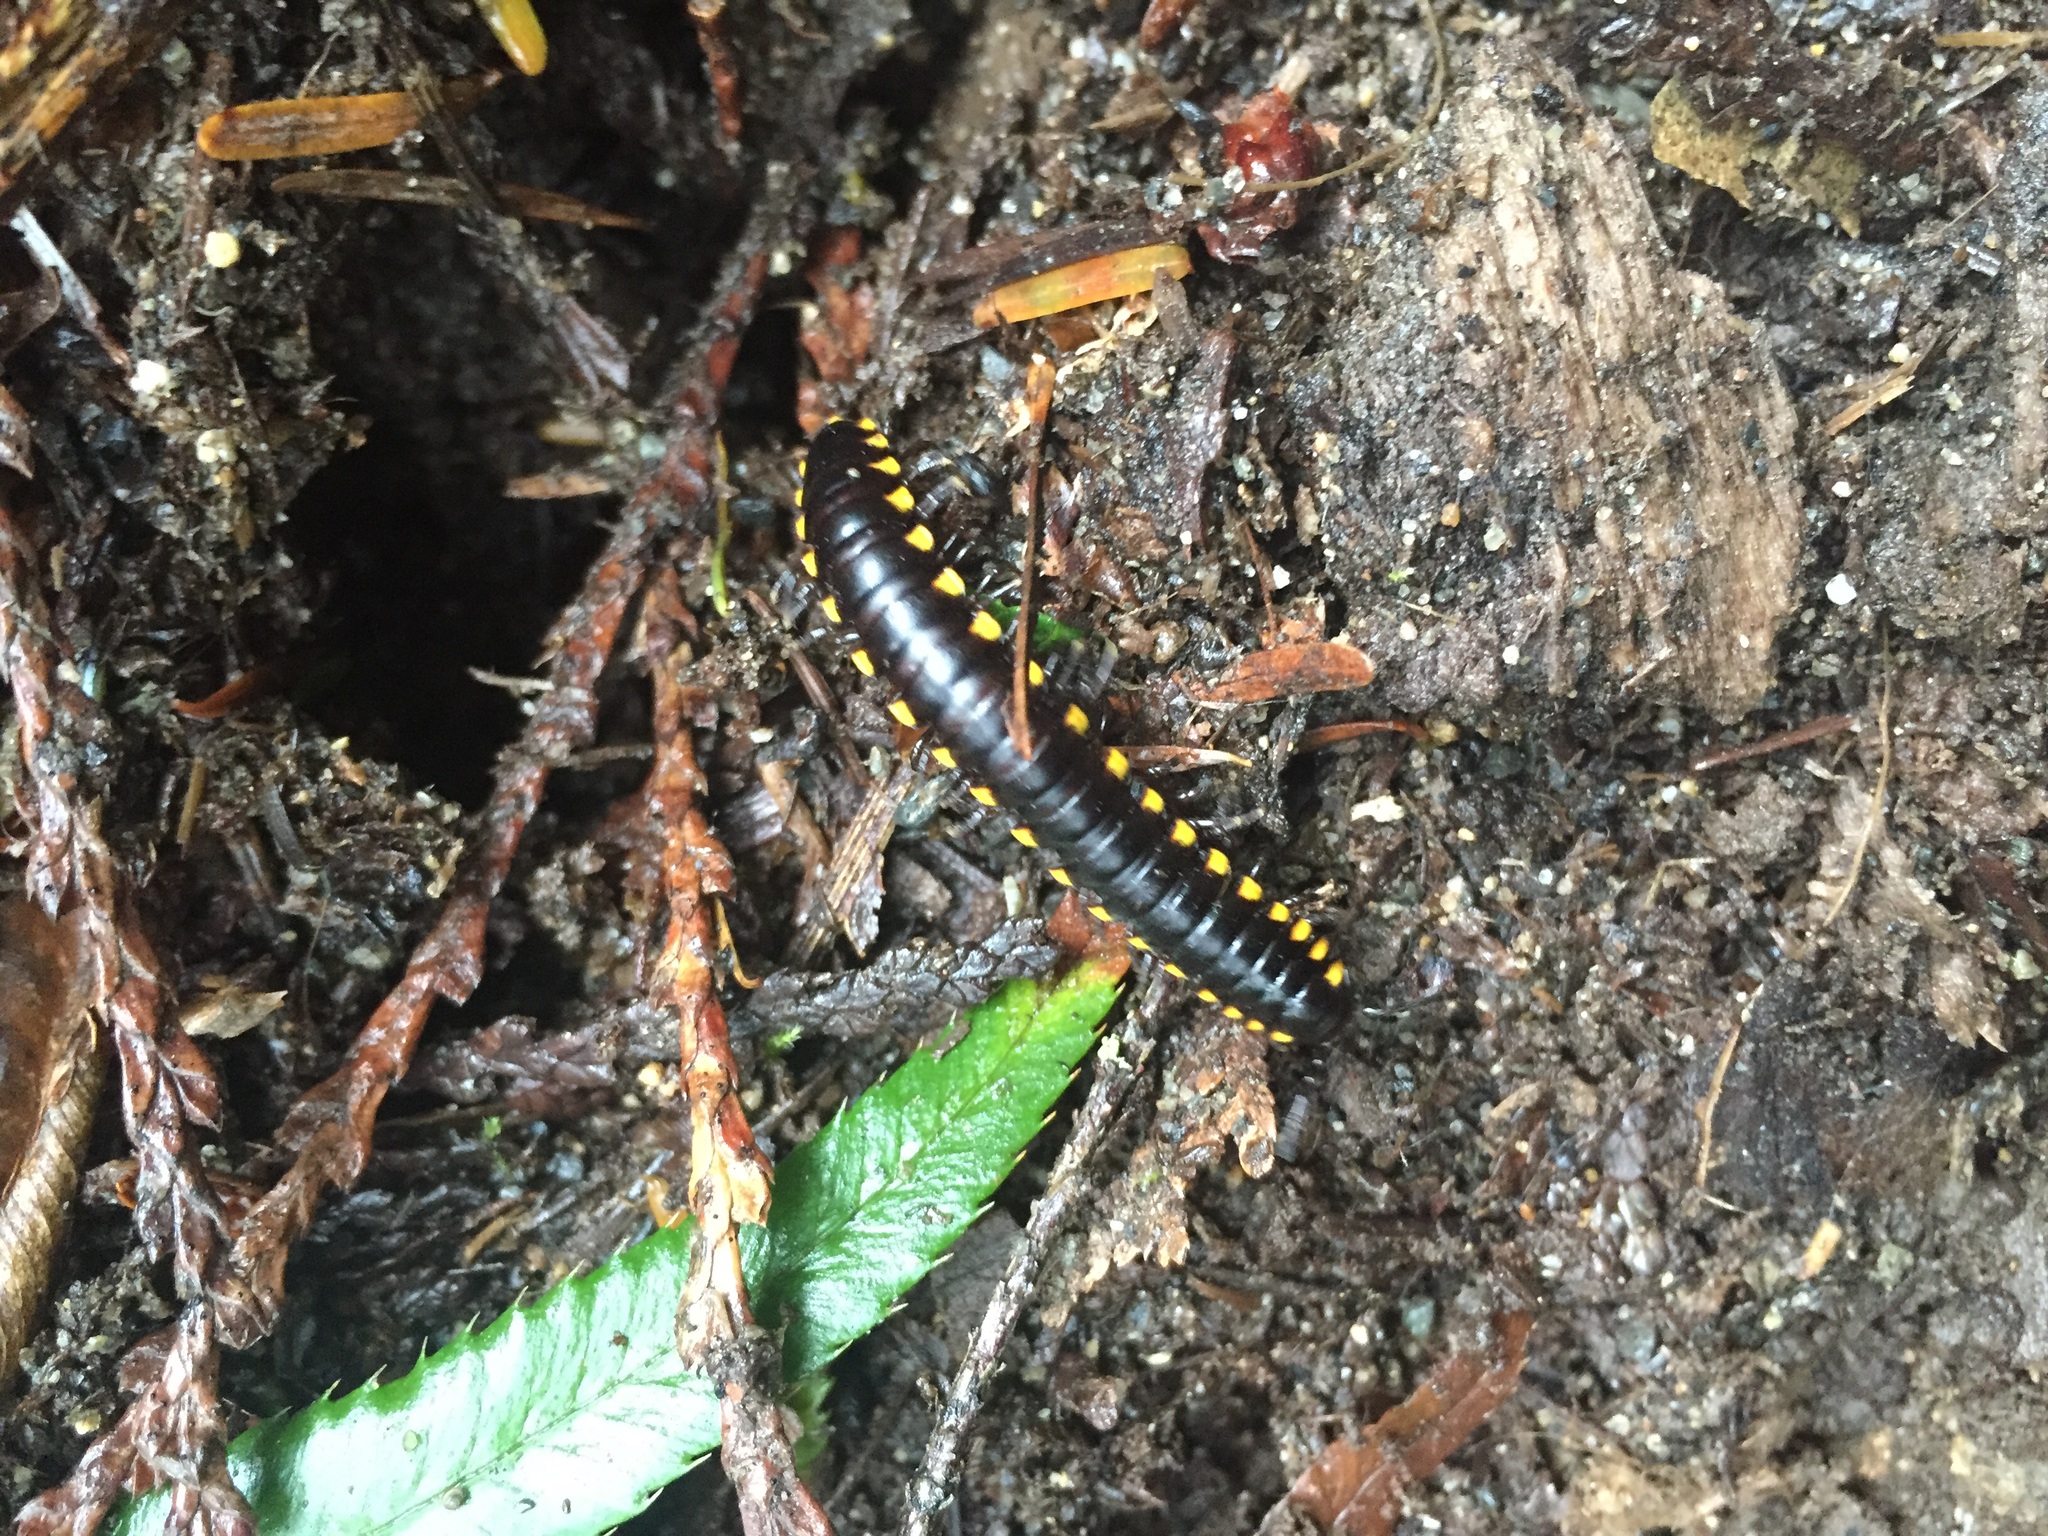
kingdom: Animalia
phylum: Arthropoda
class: Diplopoda
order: Polydesmida
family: Xystodesmidae
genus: Harpaphe
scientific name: Harpaphe haydeniana
